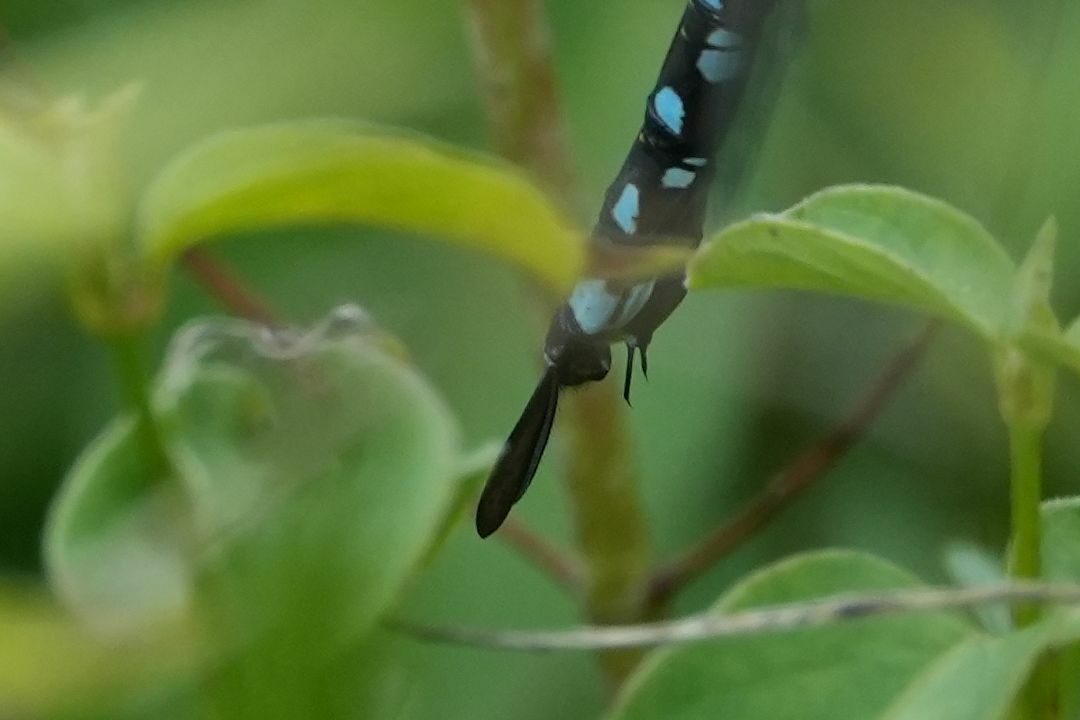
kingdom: Animalia
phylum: Arthropoda
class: Insecta
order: Odonata
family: Aeshnidae
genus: Aeshna
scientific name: Aeshna constricta
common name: Lance-tipped darner
